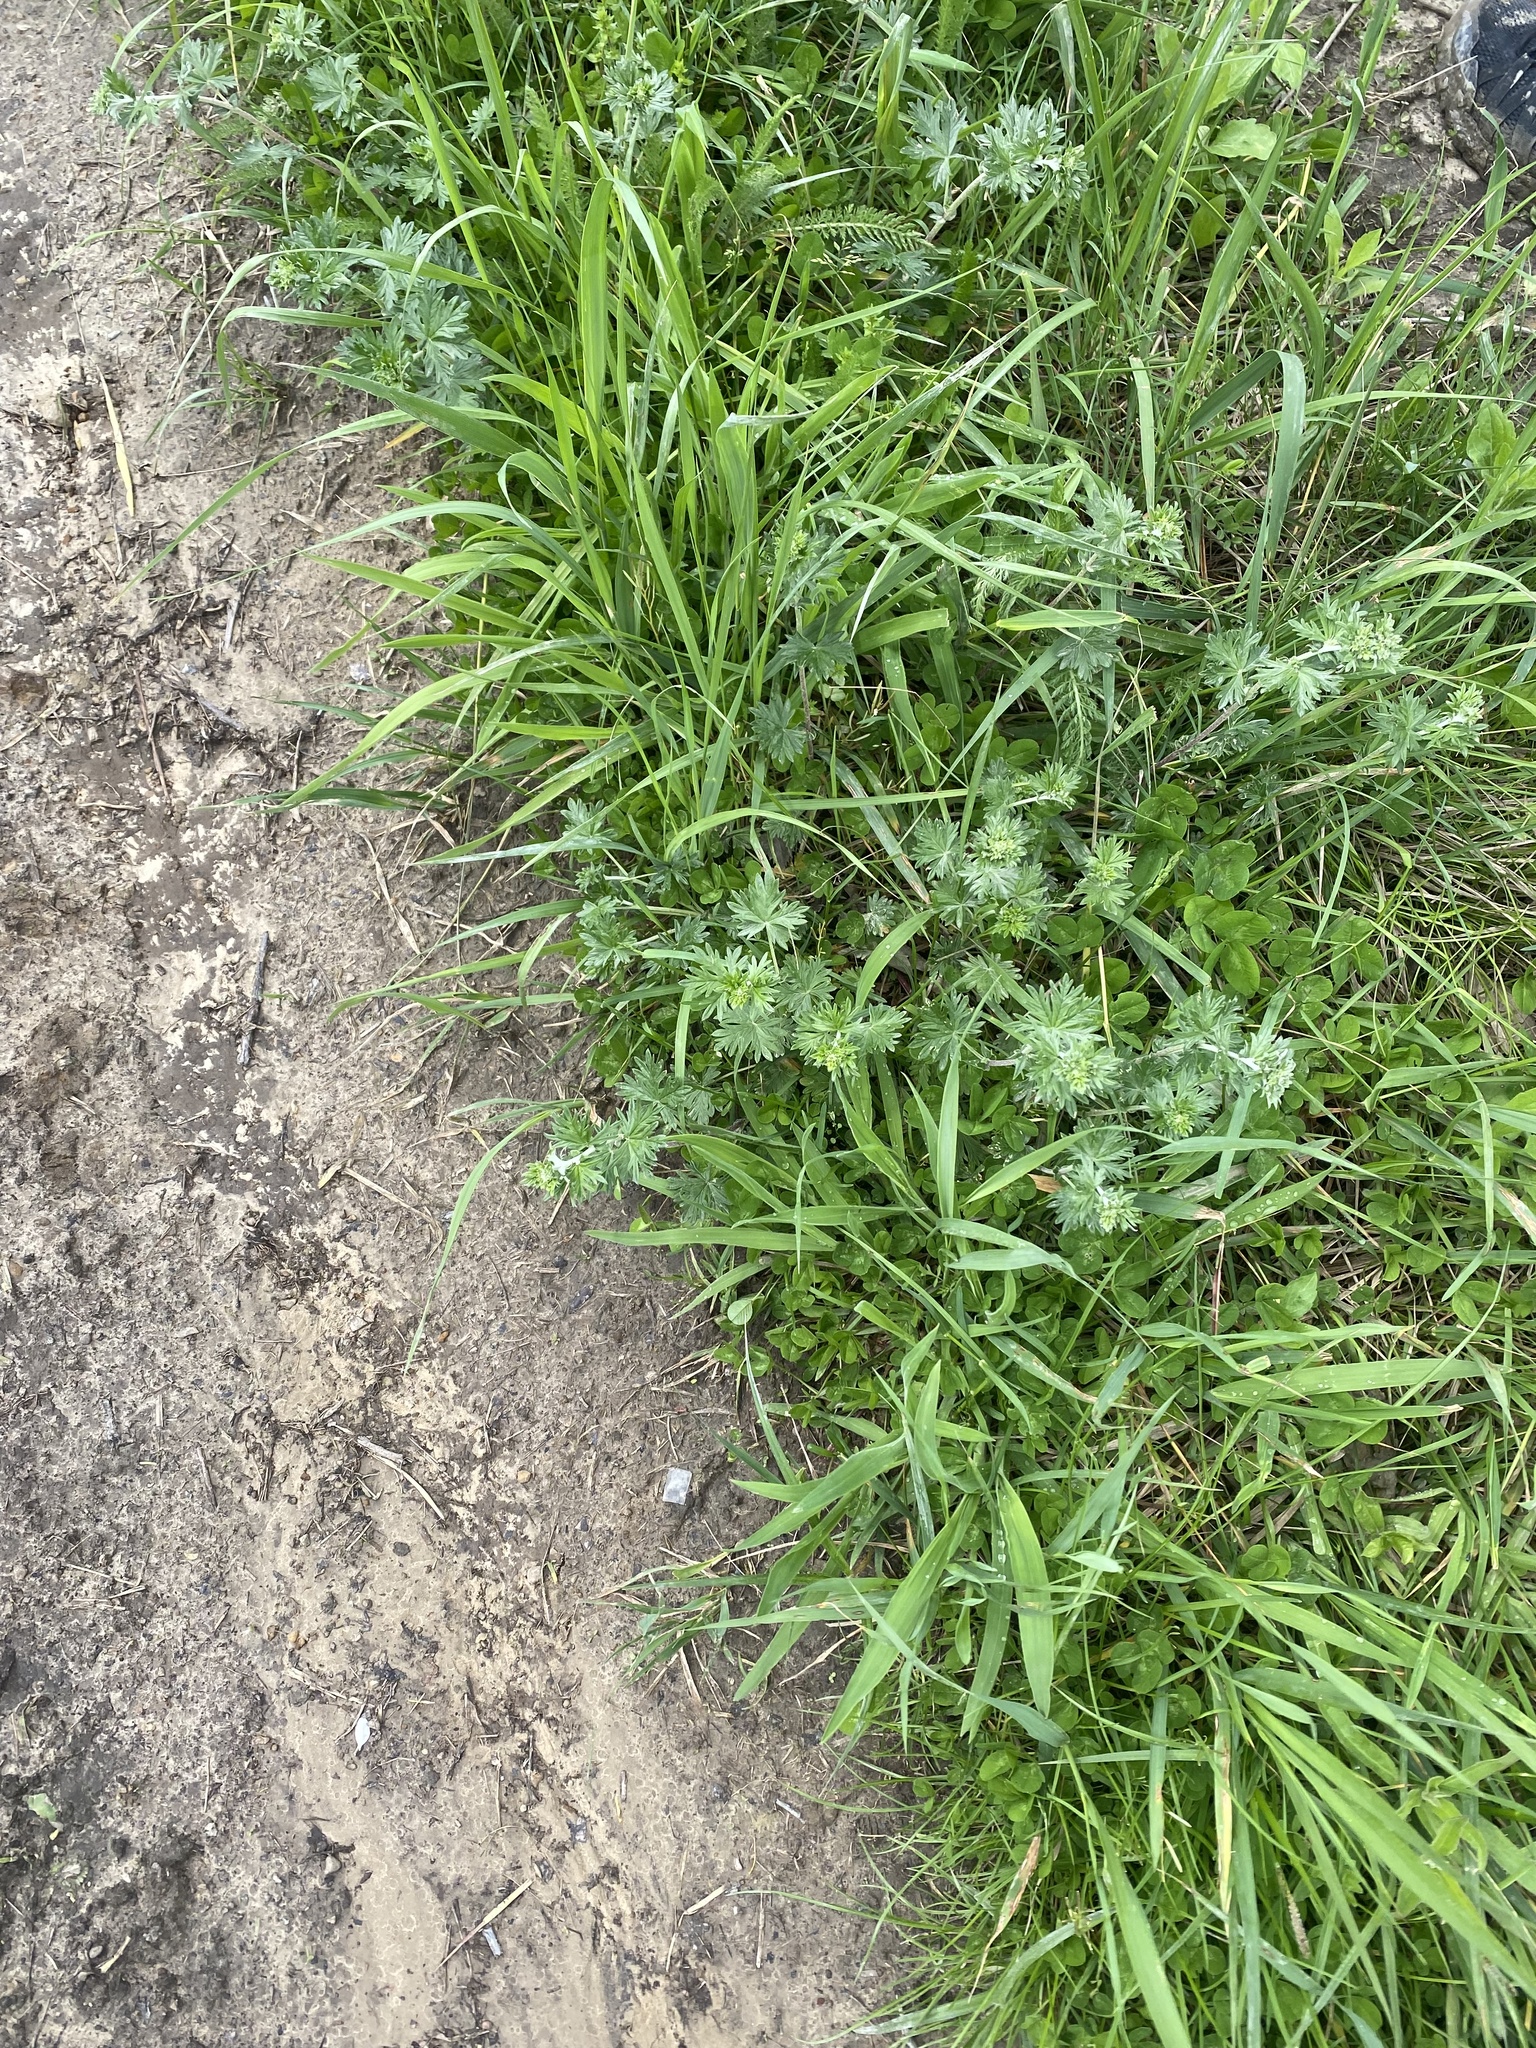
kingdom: Plantae
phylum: Tracheophyta
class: Magnoliopsida
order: Rosales
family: Rosaceae
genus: Potentilla
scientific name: Potentilla argentea
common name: Hoary cinquefoil
